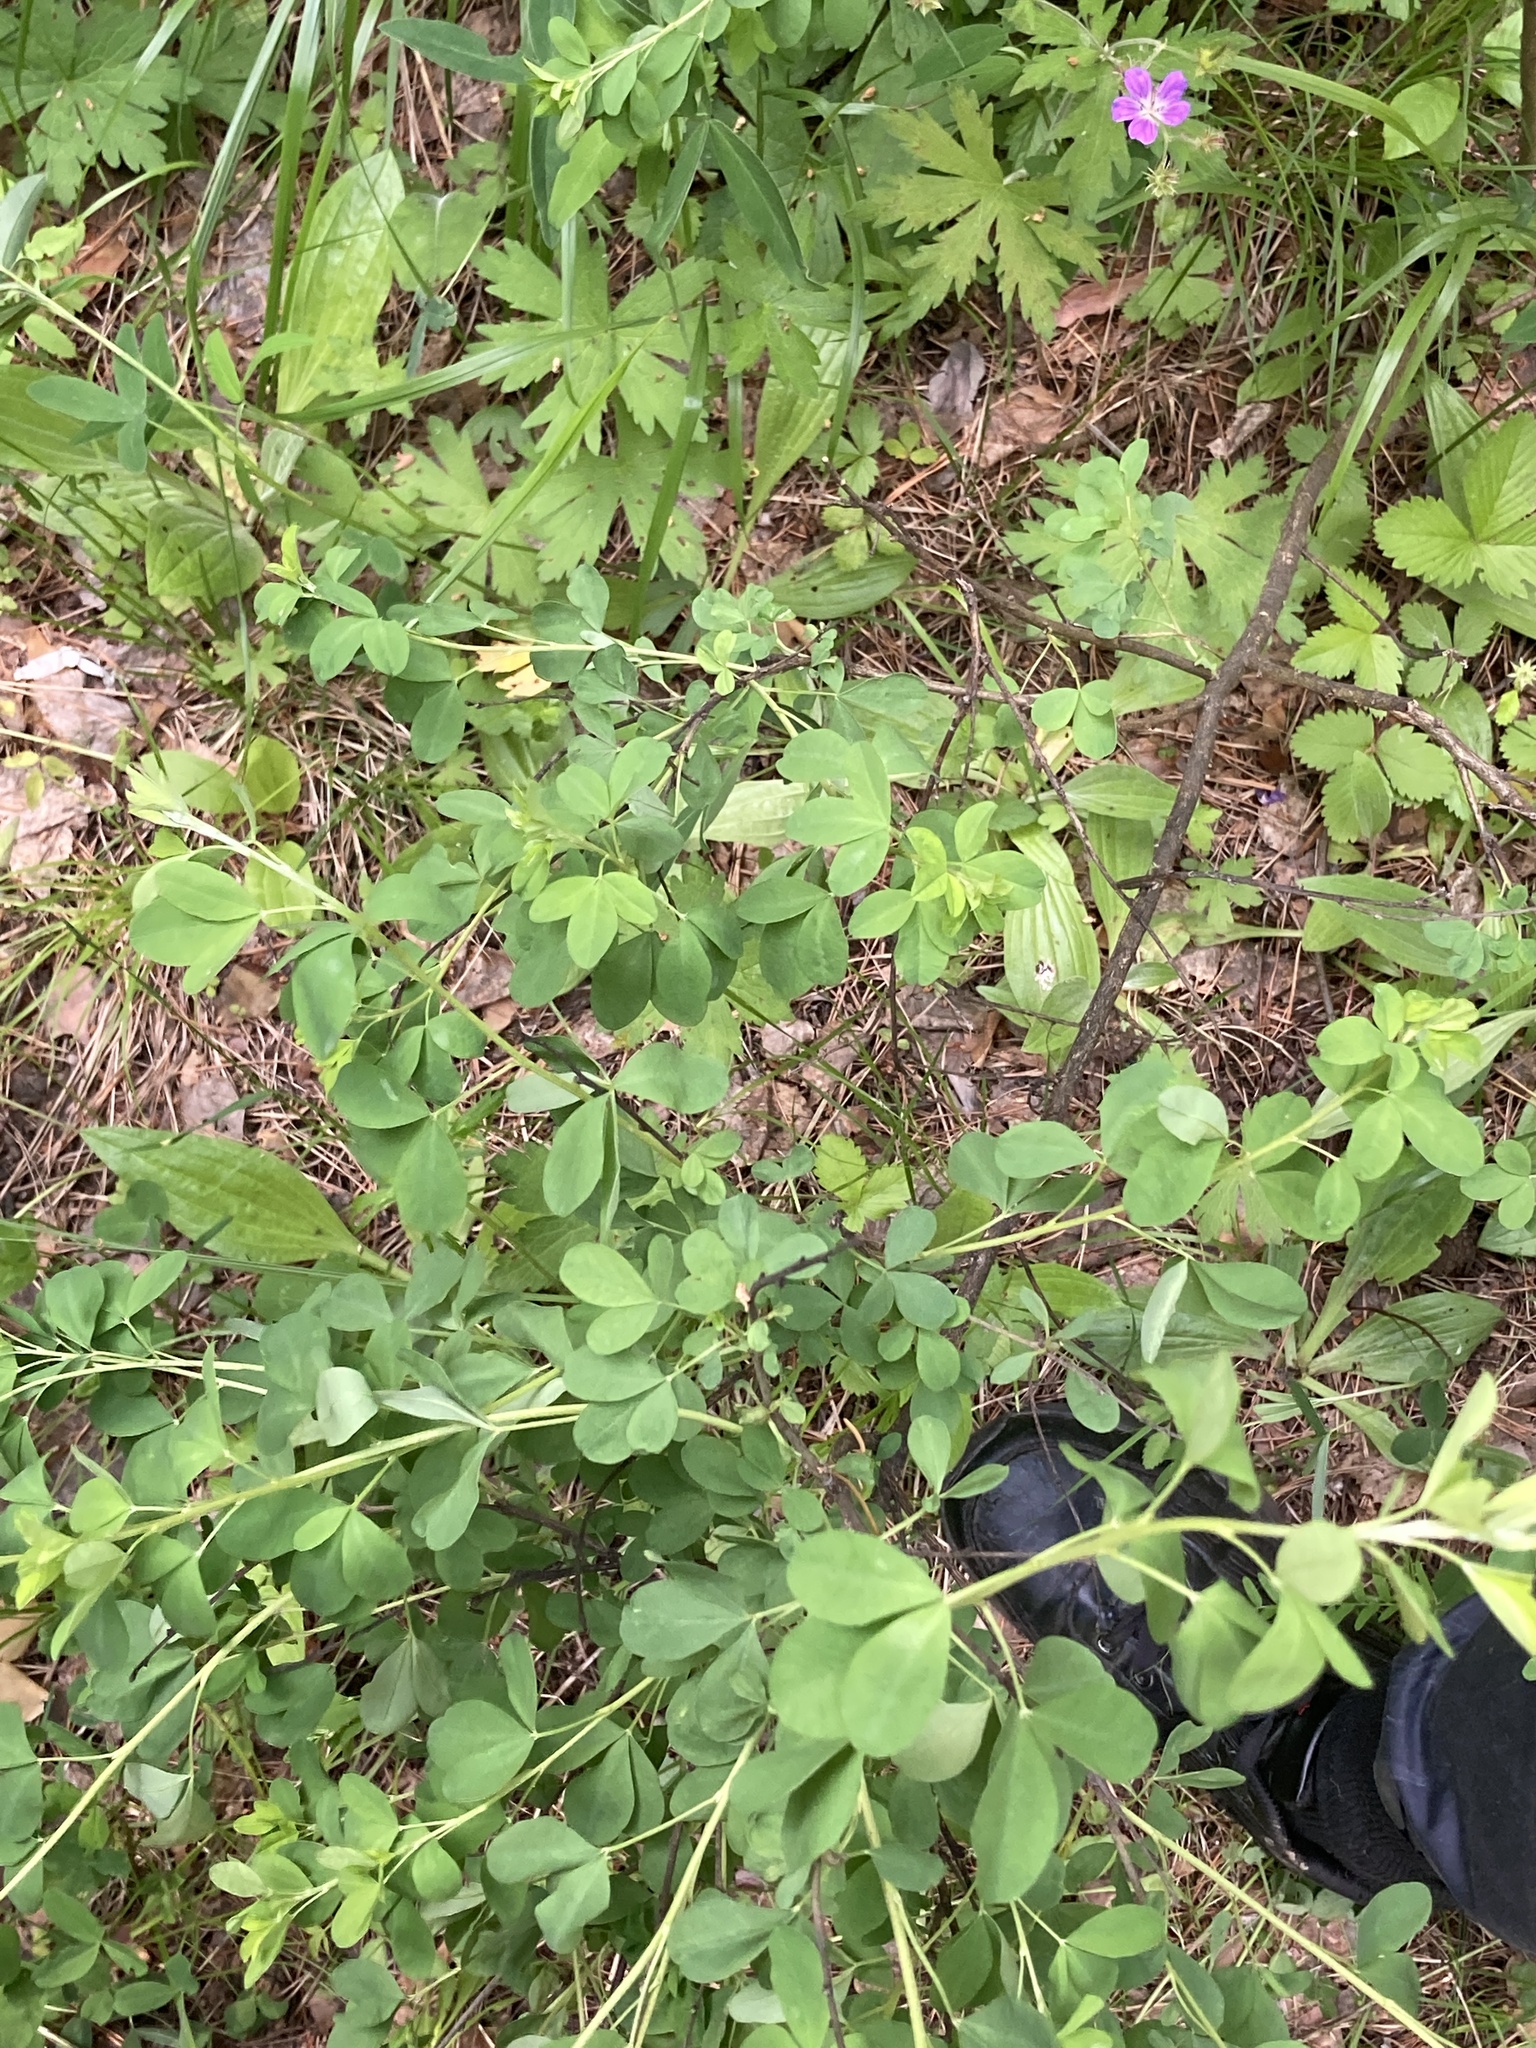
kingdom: Plantae
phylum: Tracheophyta
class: Magnoliopsida
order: Fabales
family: Fabaceae
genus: Chamaecytisus
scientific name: Chamaecytisus ruthenicus
